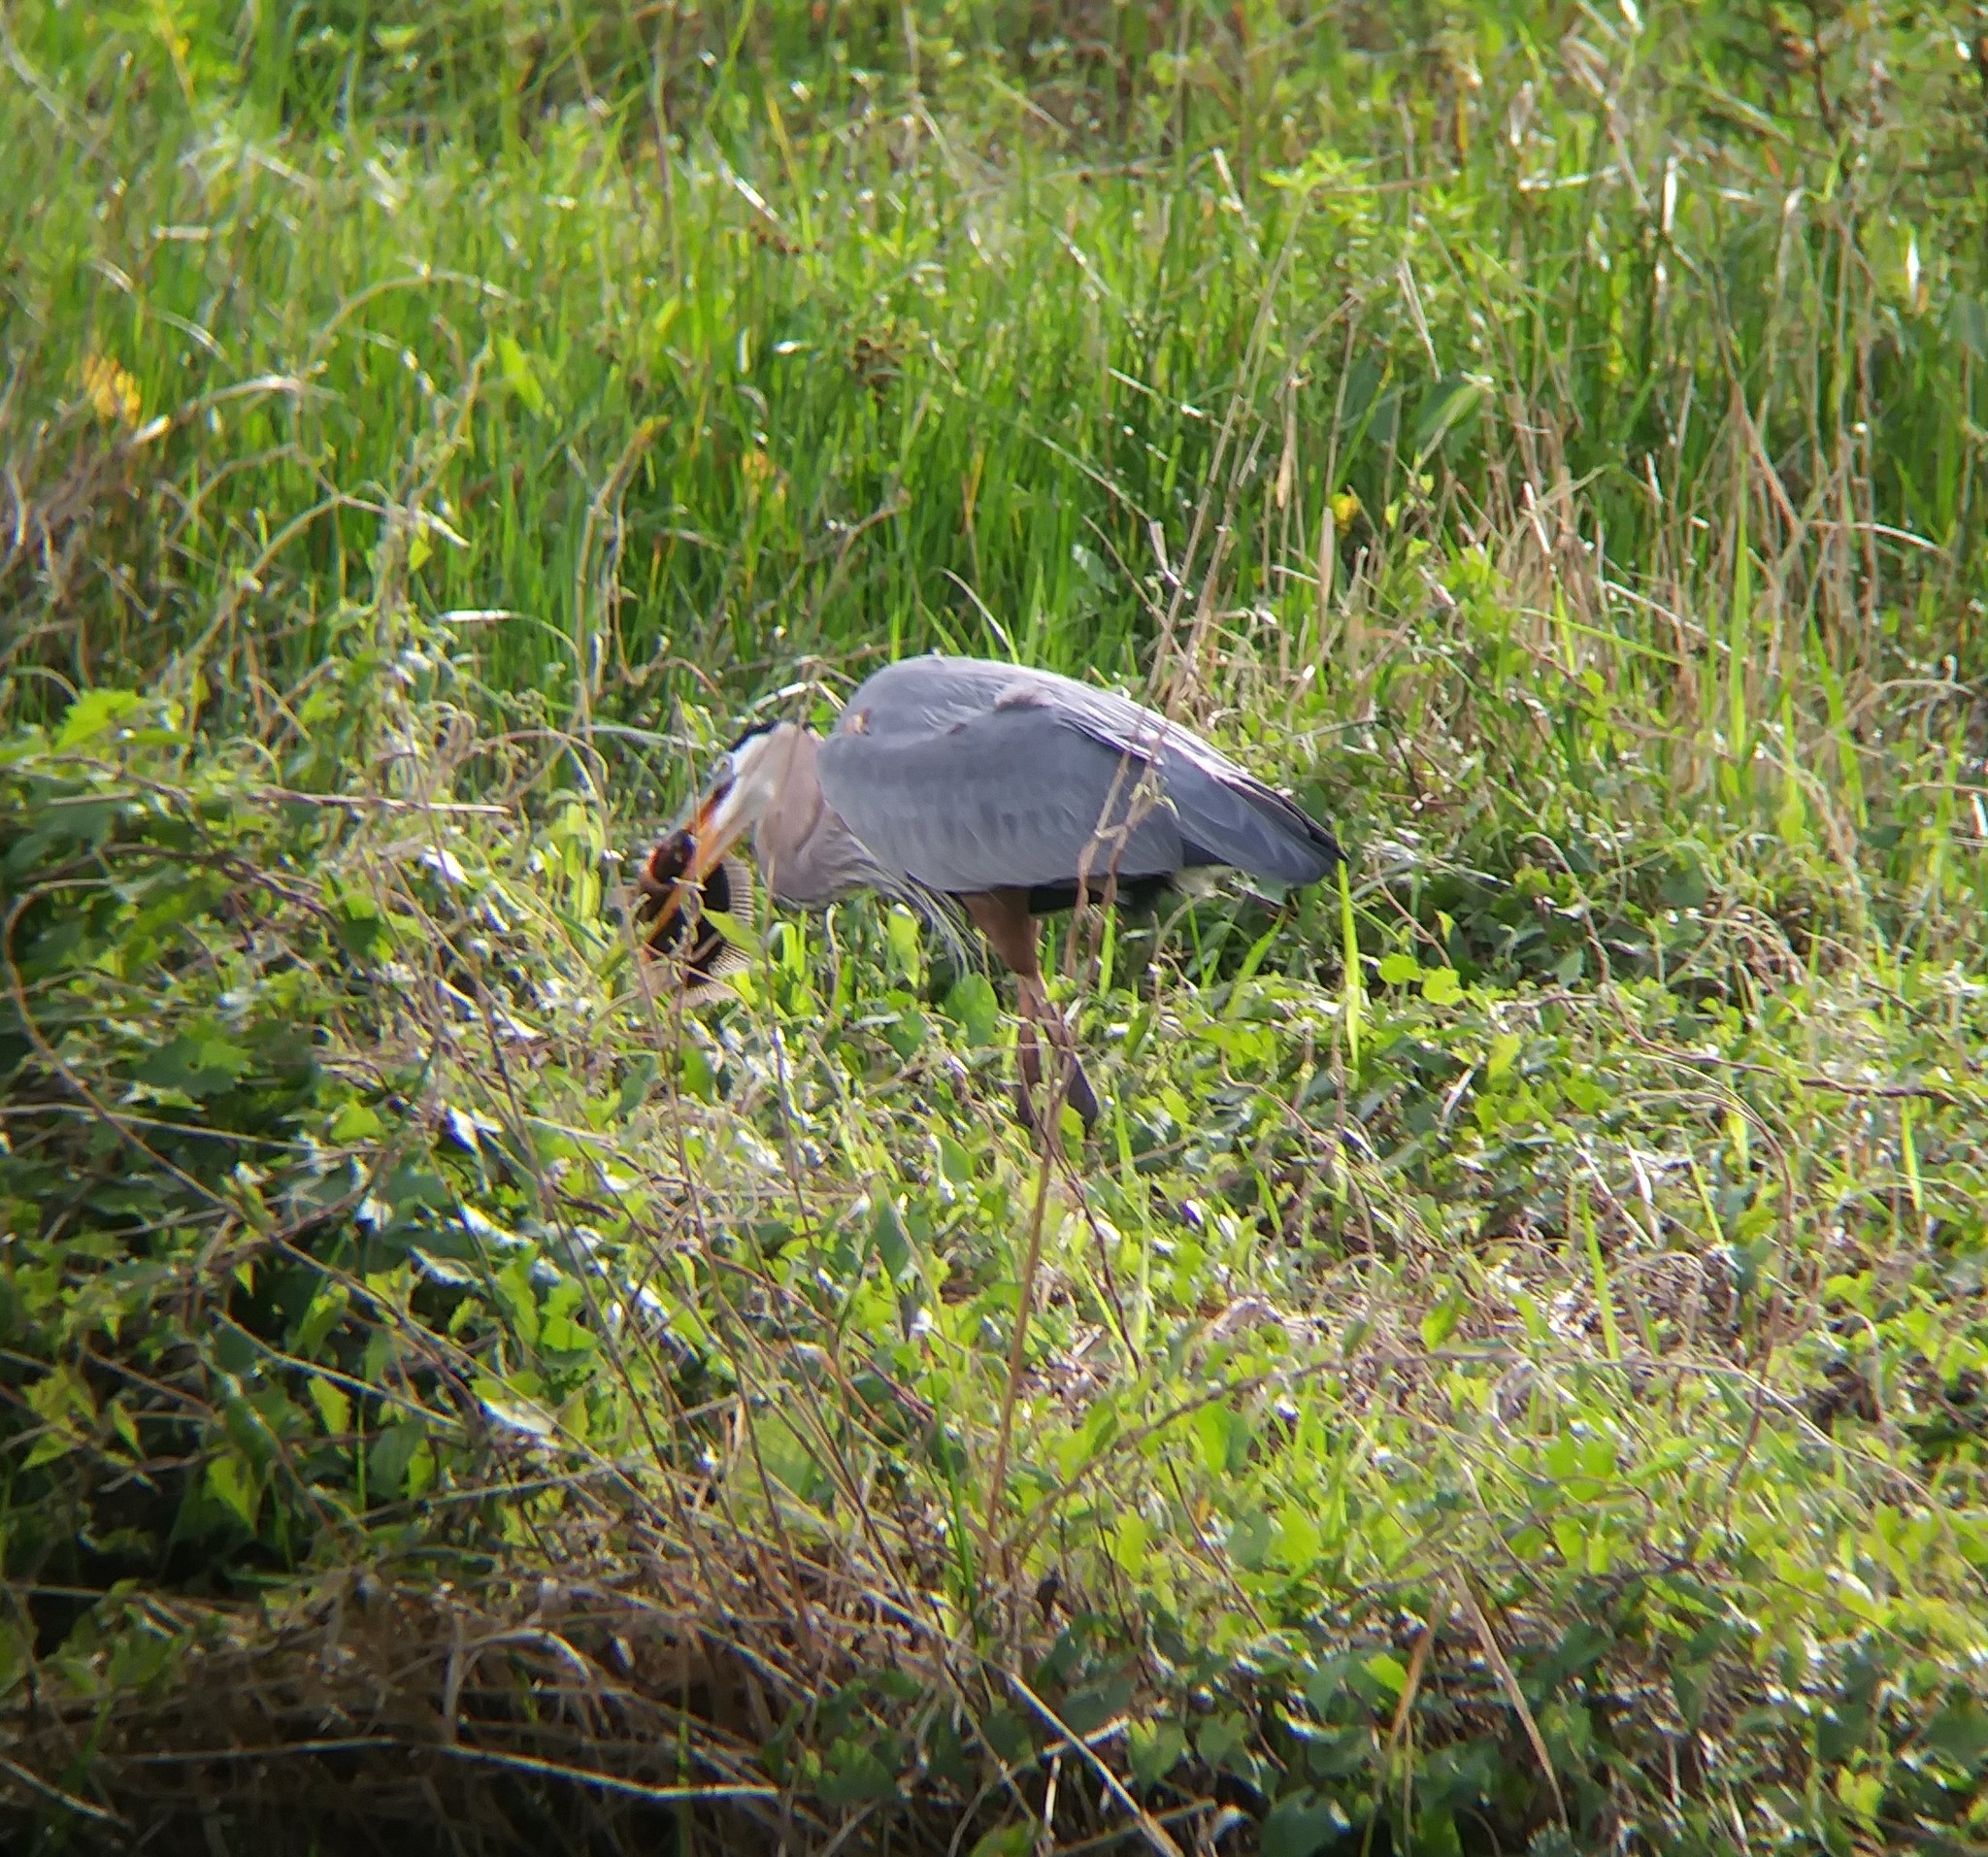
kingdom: Animalia
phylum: Chordata
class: Aves
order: Pelecaniformes
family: Ardeidae
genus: Ardea
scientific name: Ardea herodias
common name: Great blue heron
